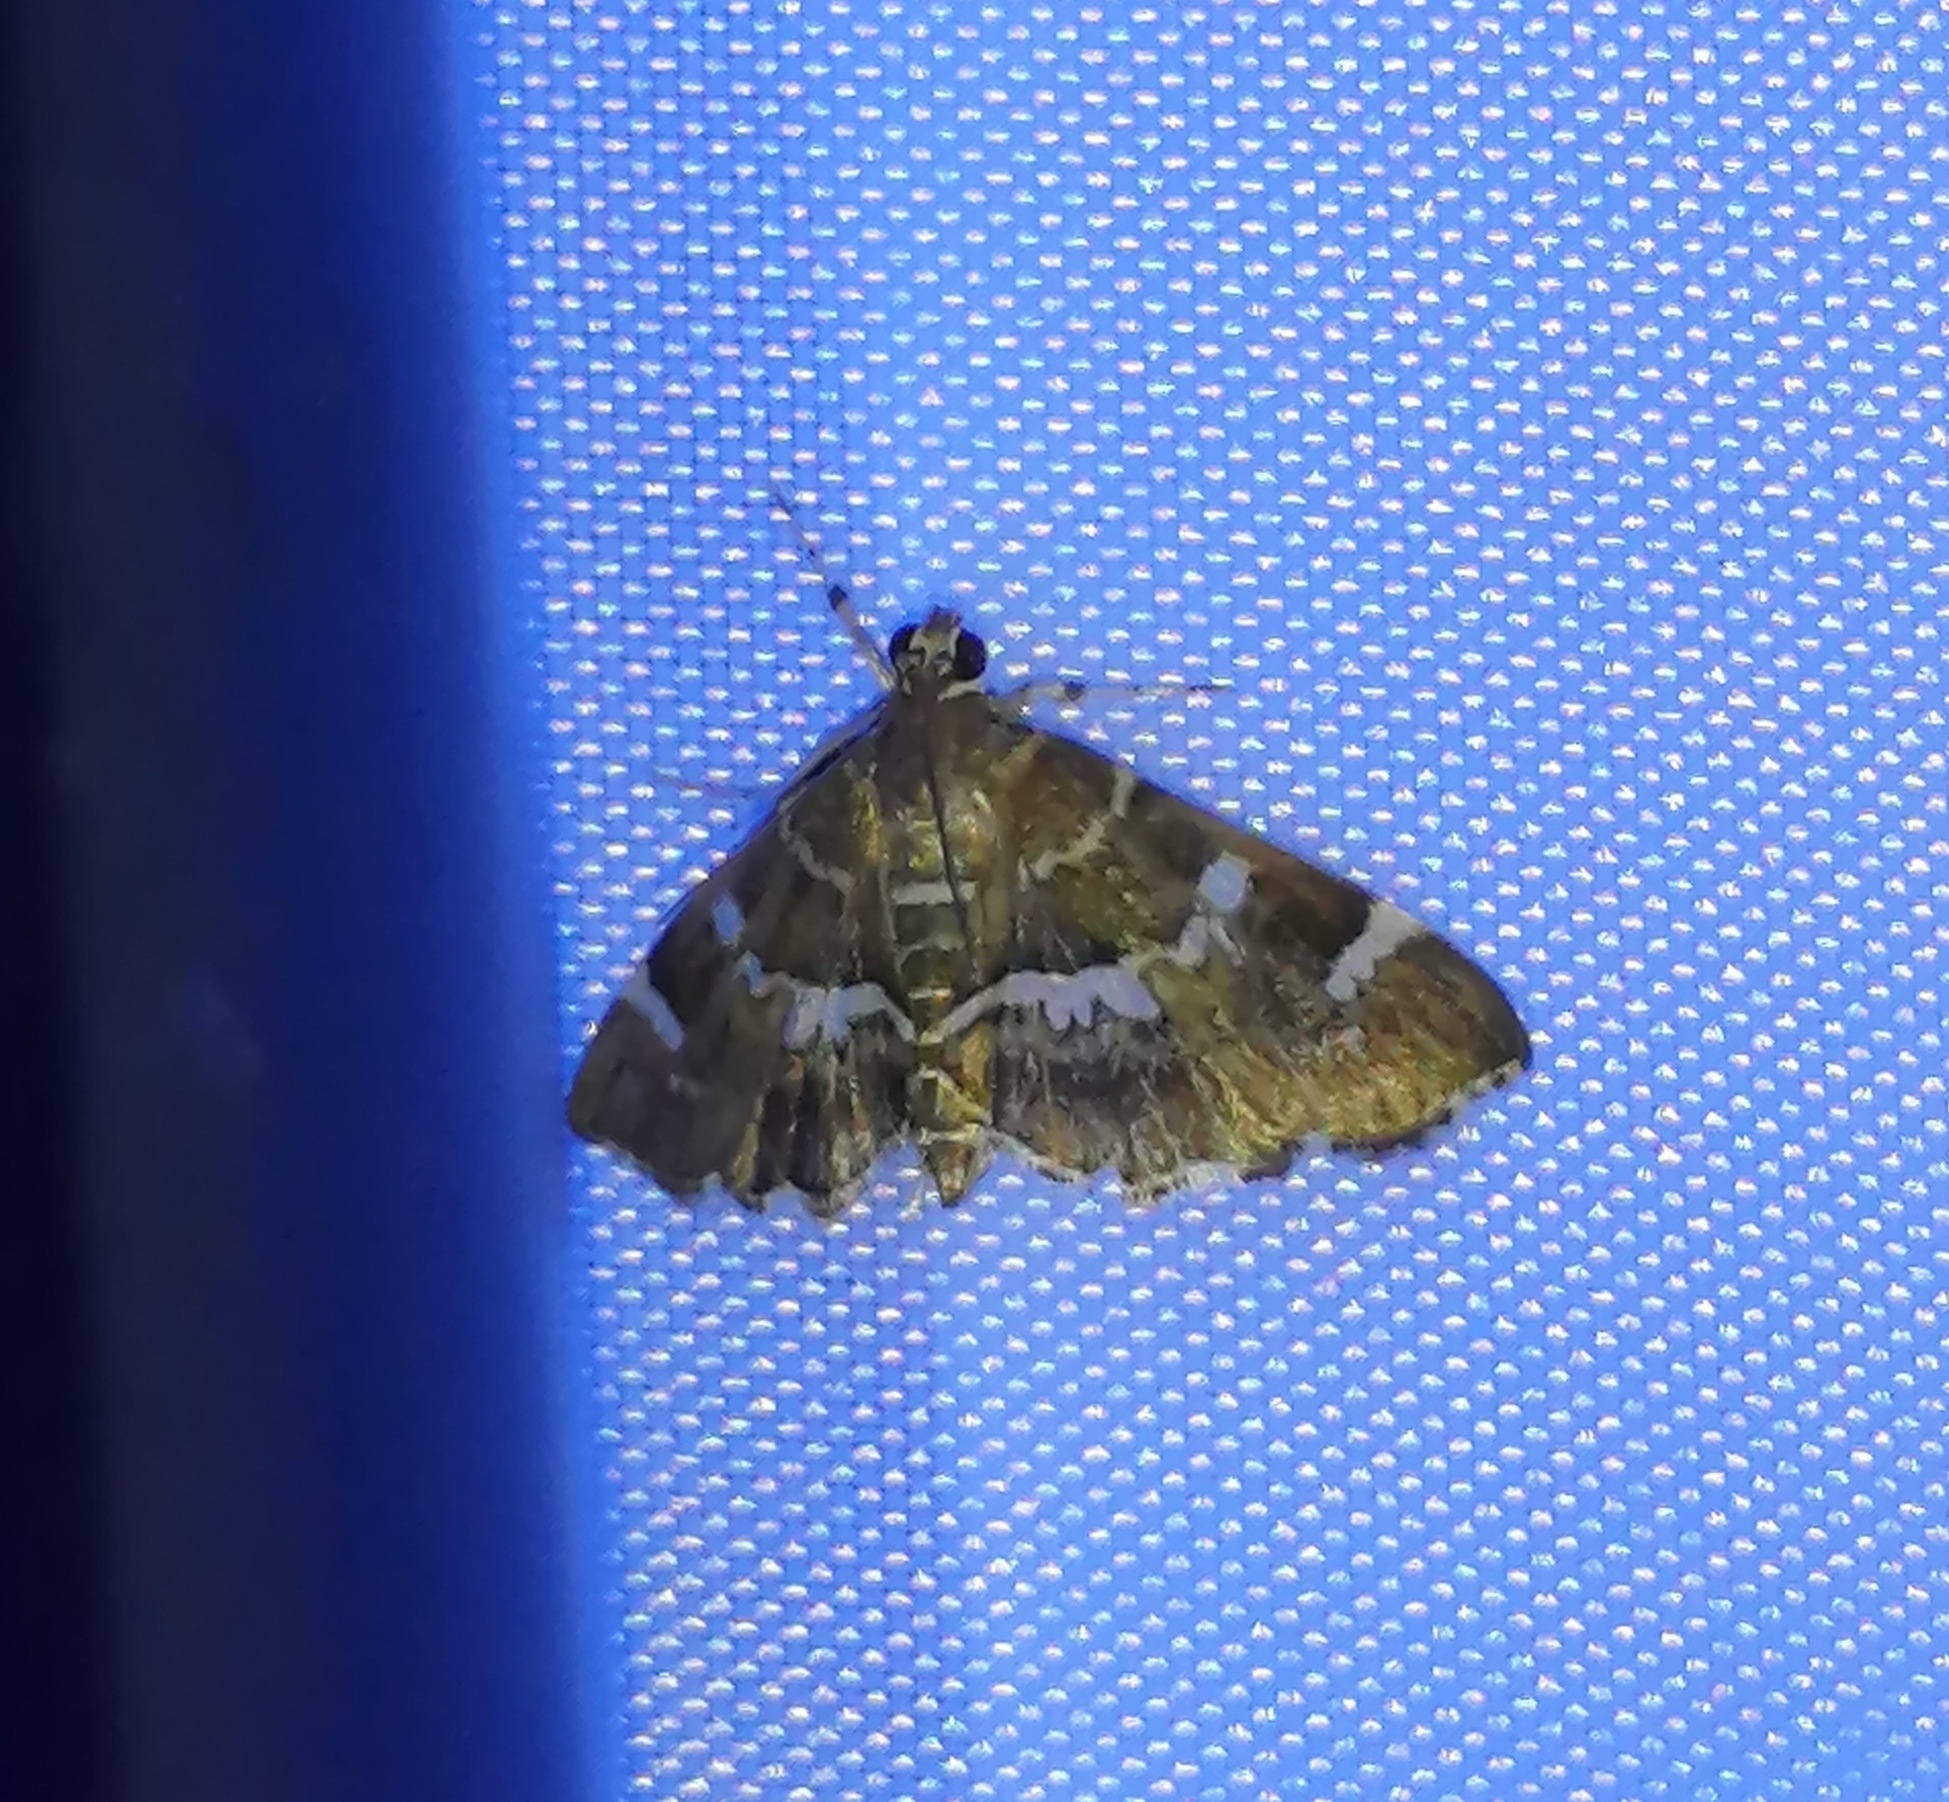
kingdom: Animalia
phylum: Arthropoda
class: Insecta
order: Lepidoptera
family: Crambidae
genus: Hymenia
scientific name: Hymenia perspectalis
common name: Spotted beet webworm
